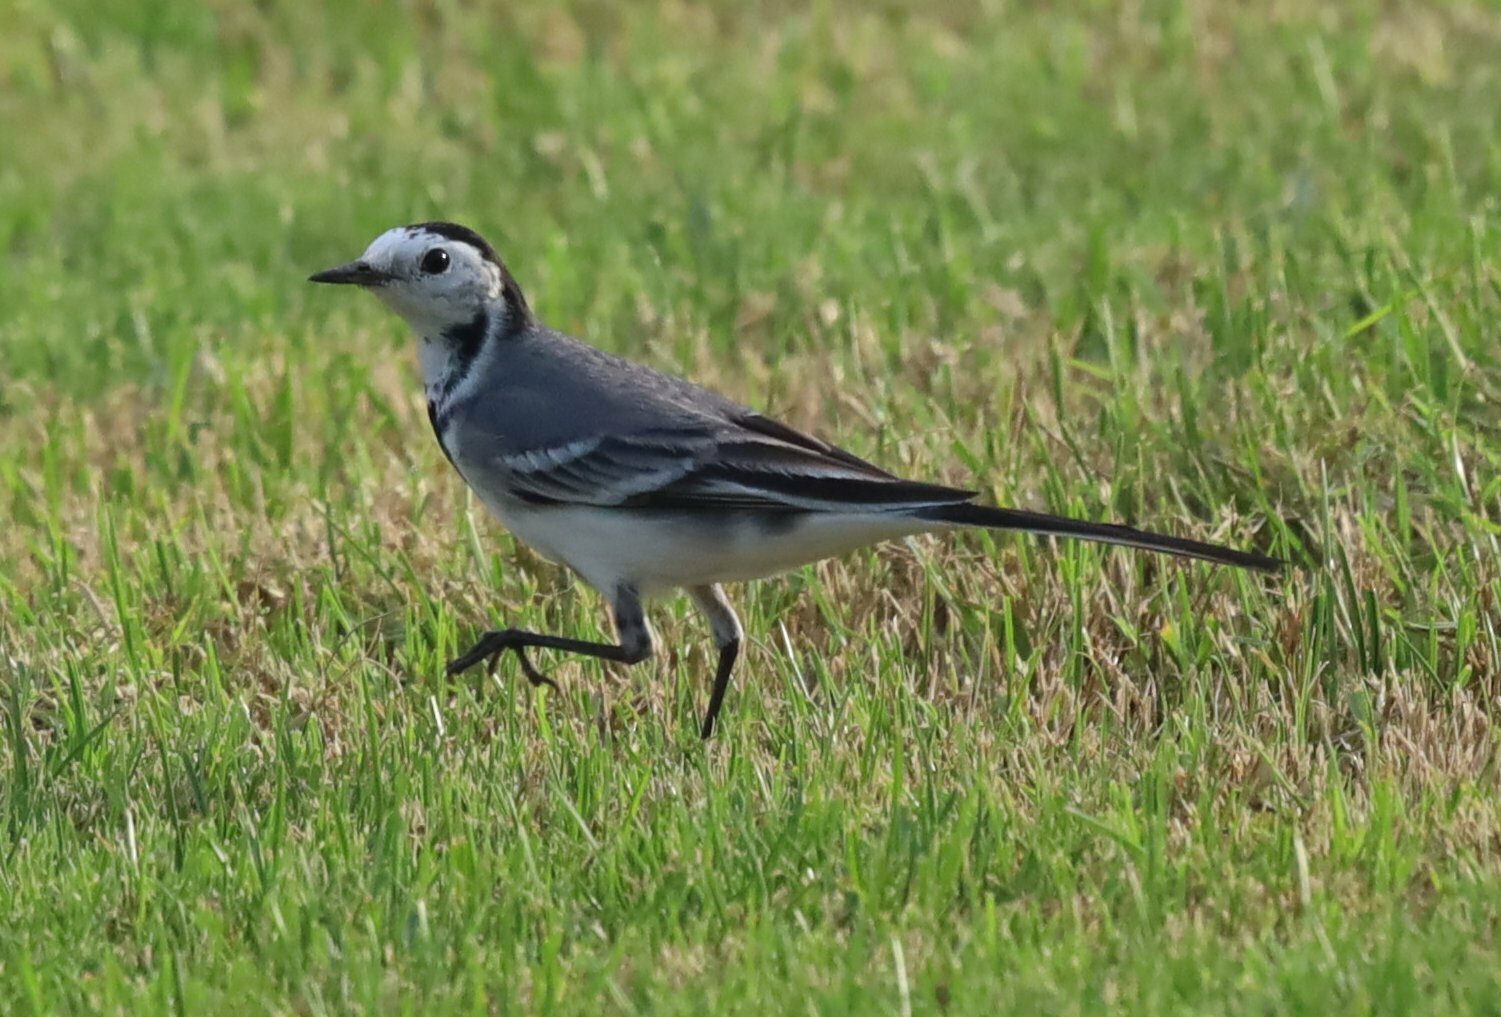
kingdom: Animalia
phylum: Chordata
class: Aves
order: Passeriformes
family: Motacillidae
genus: Motacilla
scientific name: Motacilla alba
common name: White wagtail
